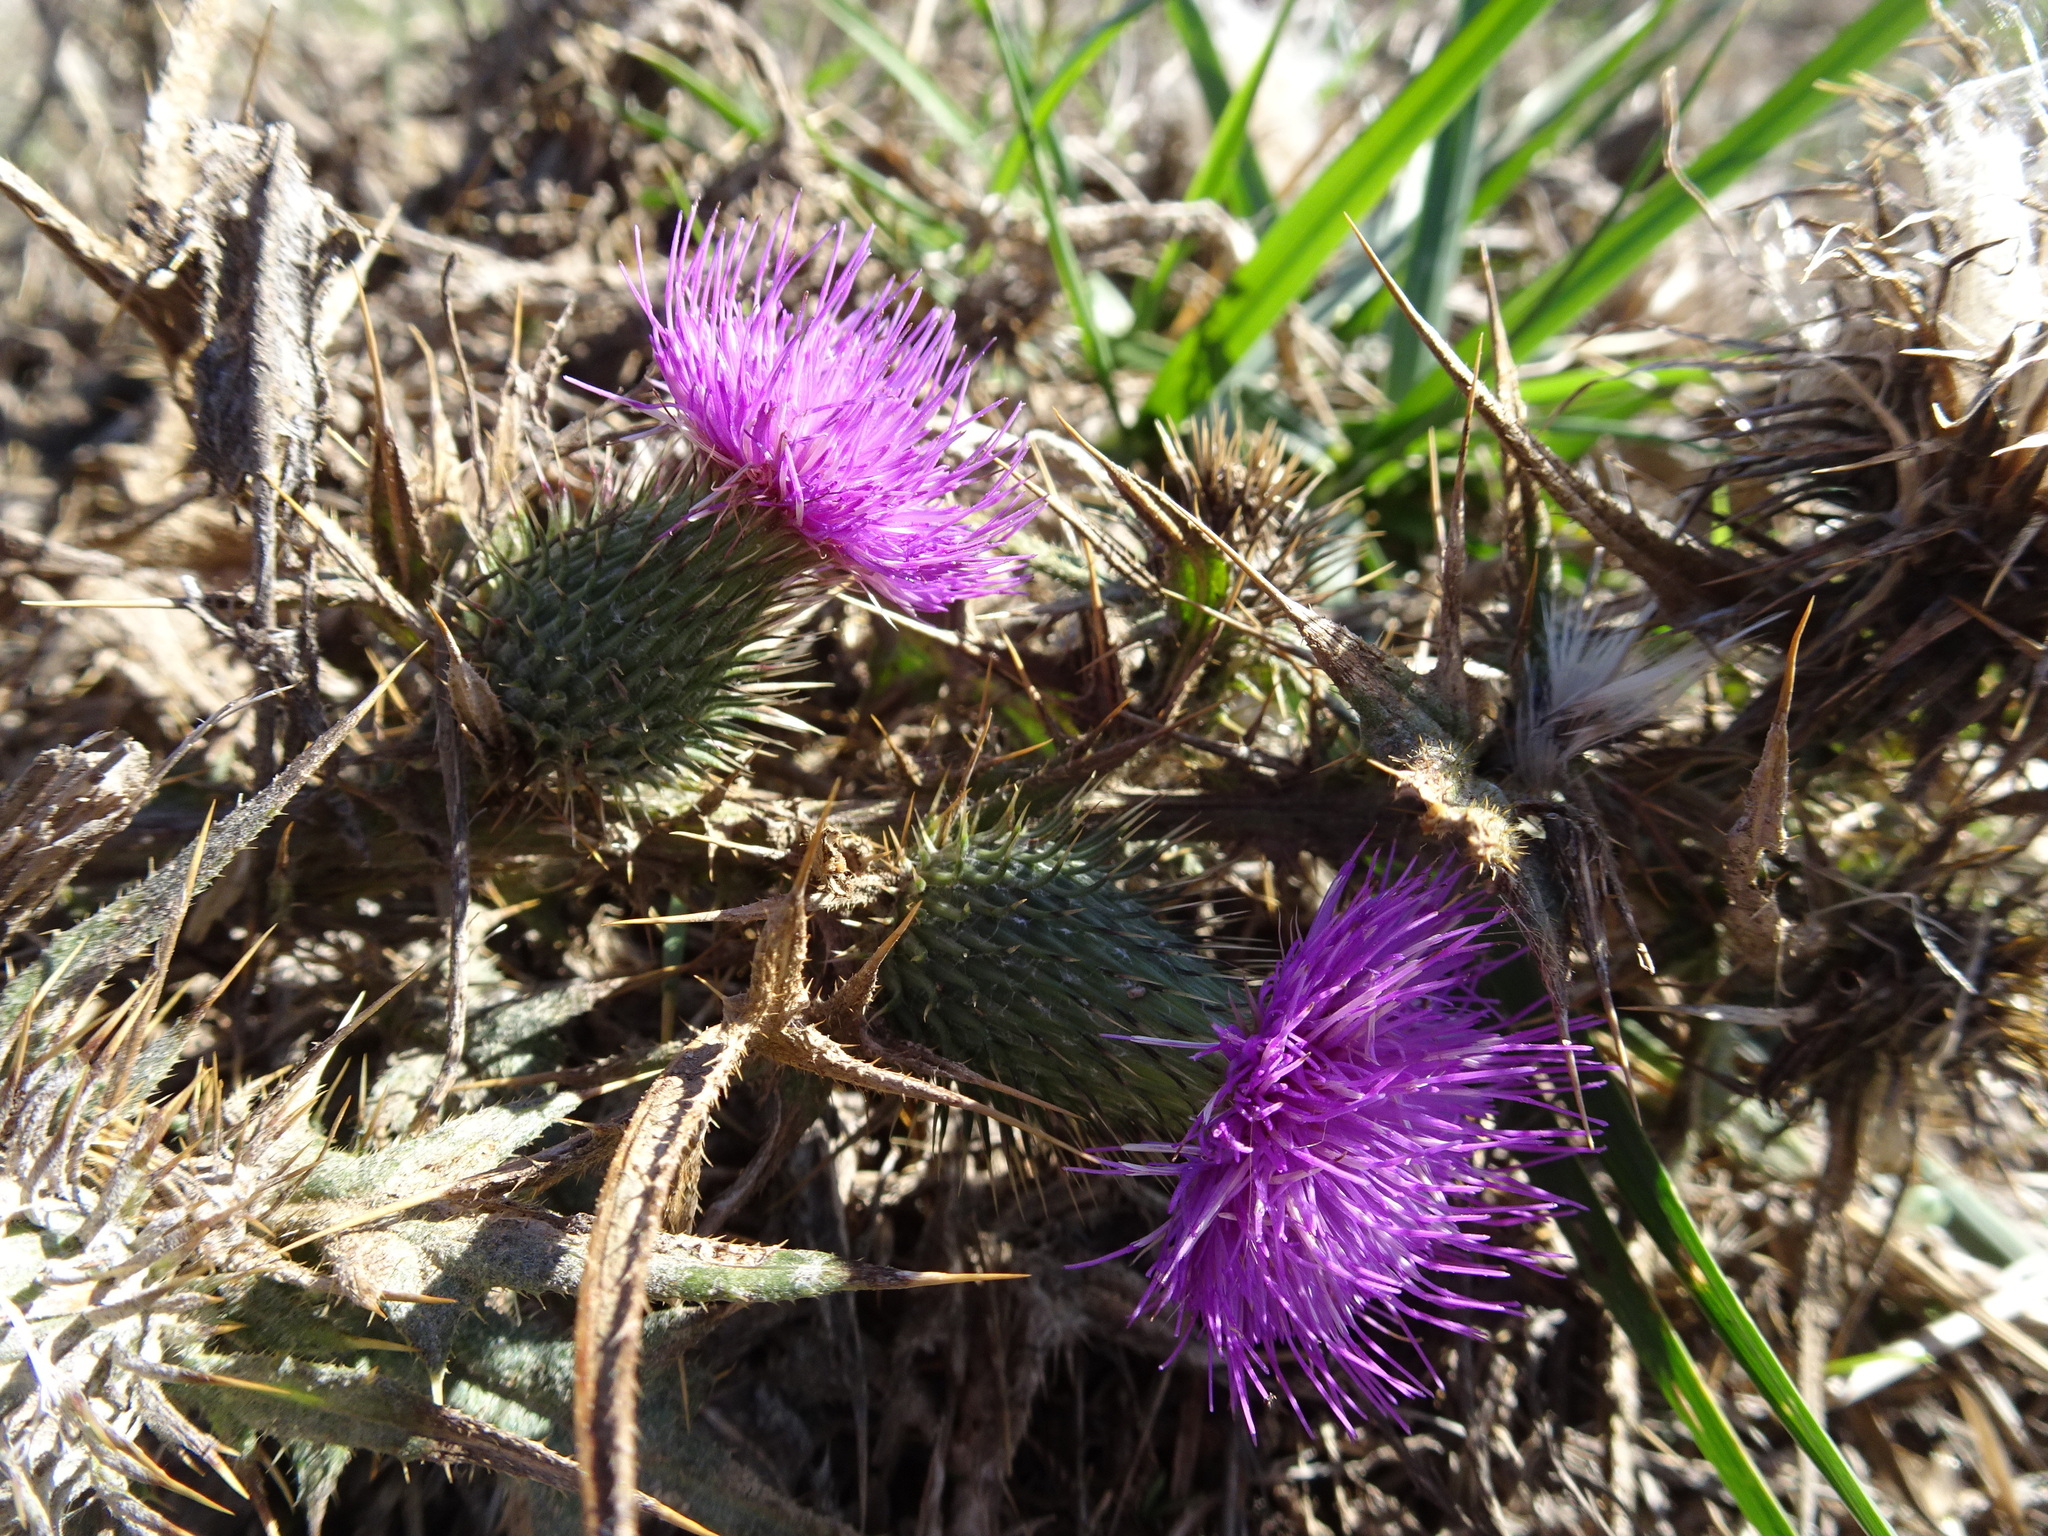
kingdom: Plantae
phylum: Tracheophyta
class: Magnoliopsida
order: Asterales
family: Asteraceae
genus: Cirsium
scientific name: Cirsium vulgare
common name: Bull thistle
